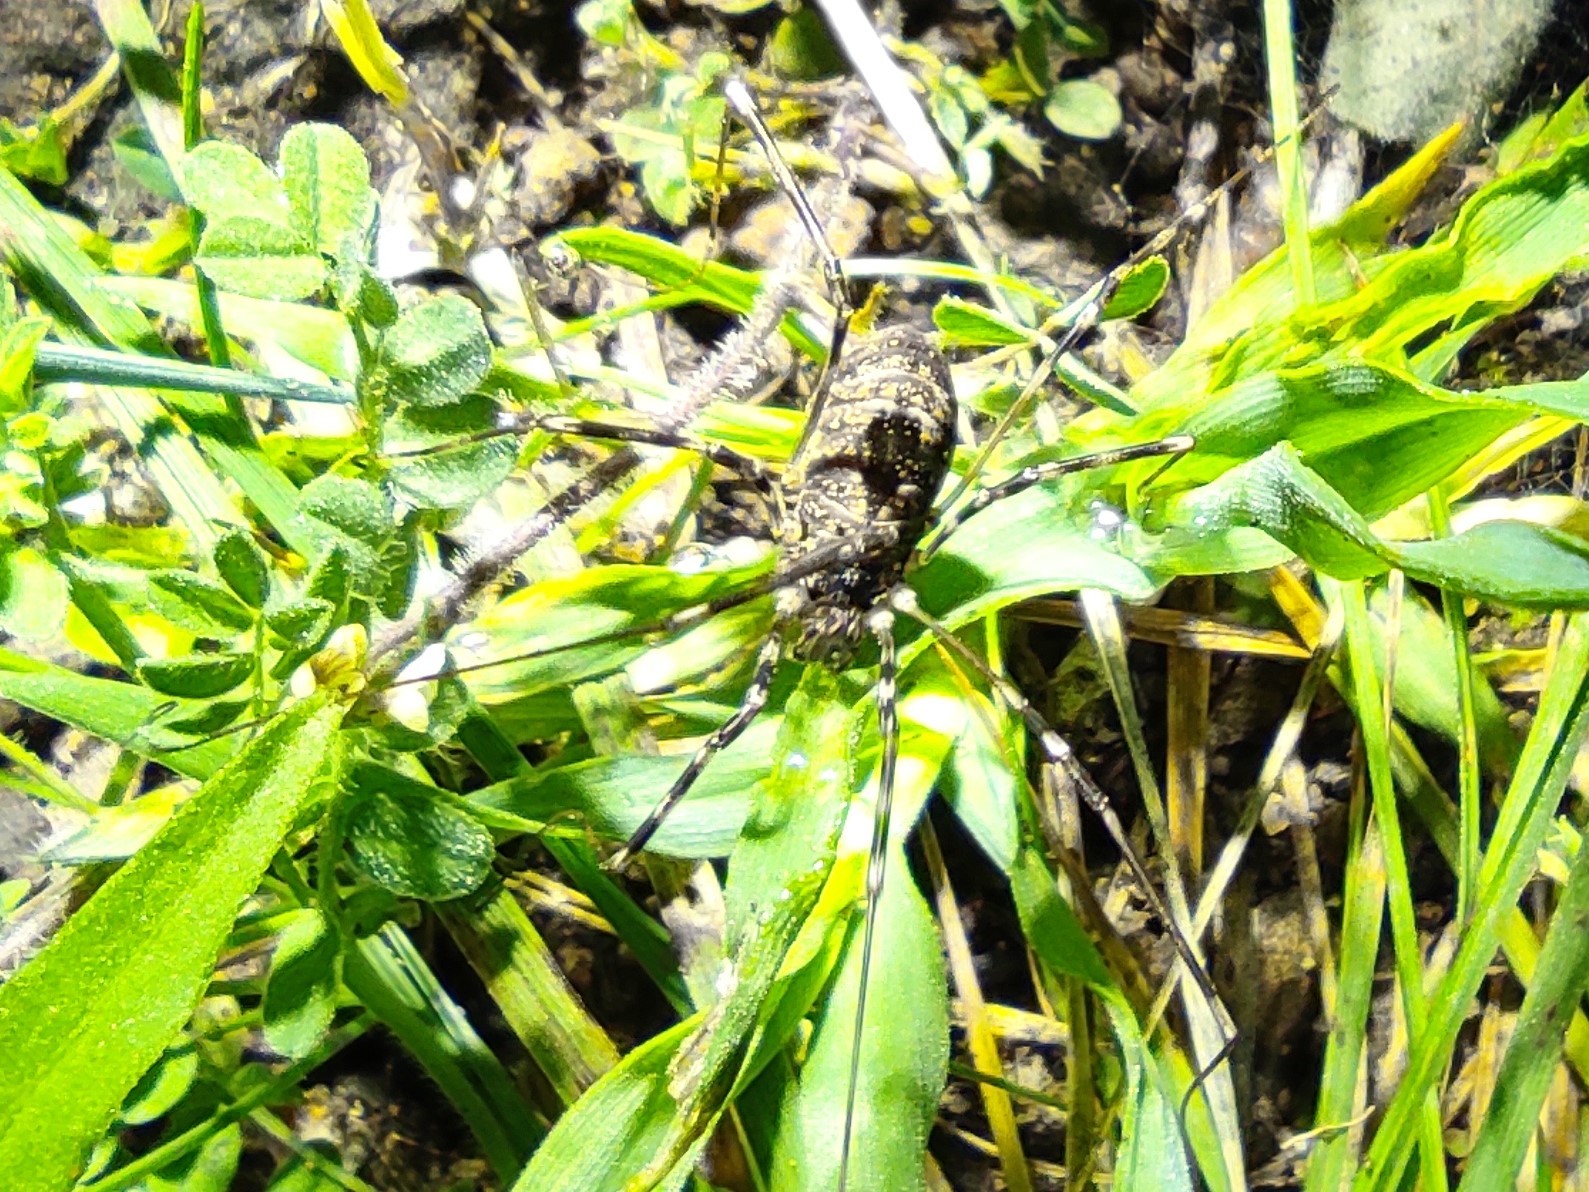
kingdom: Animalia
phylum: Arthropoda
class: Arachnida
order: Opiliones
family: Phalangiidae
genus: Dicranopalpus
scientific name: Dicranopalpus martini
